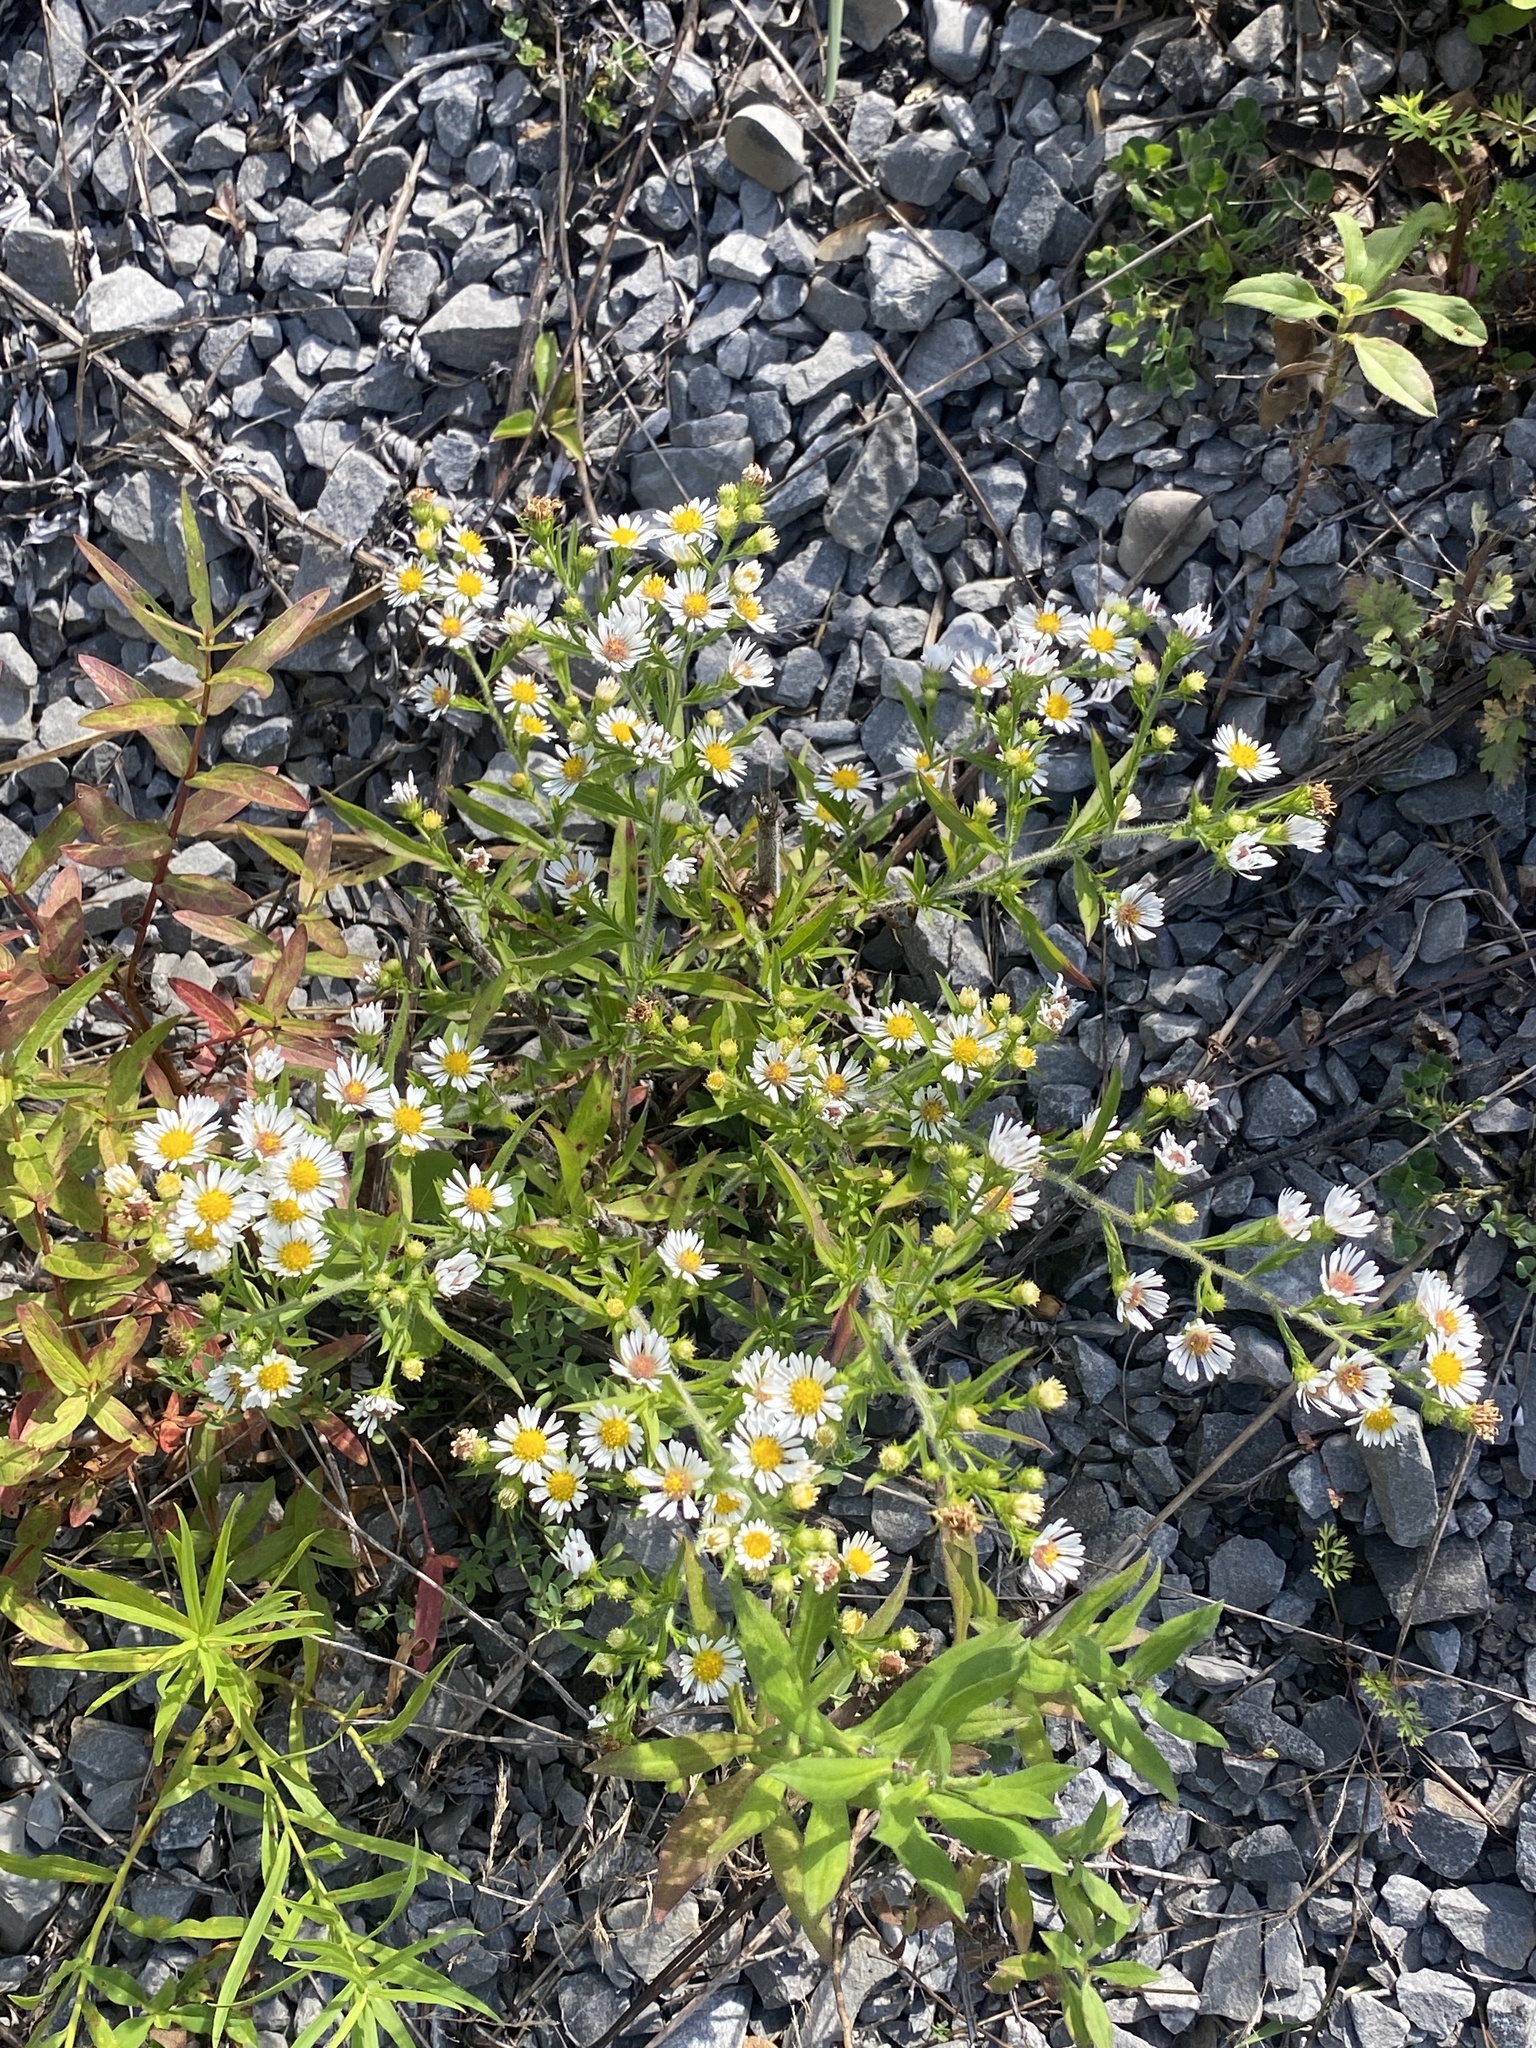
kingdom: Plantae
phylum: Tracheophyta
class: Magnoliopsida
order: Asterales
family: Asteraceae
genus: Symphyotrichum
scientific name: Symphyotrichum pilosum
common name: Awl aster
